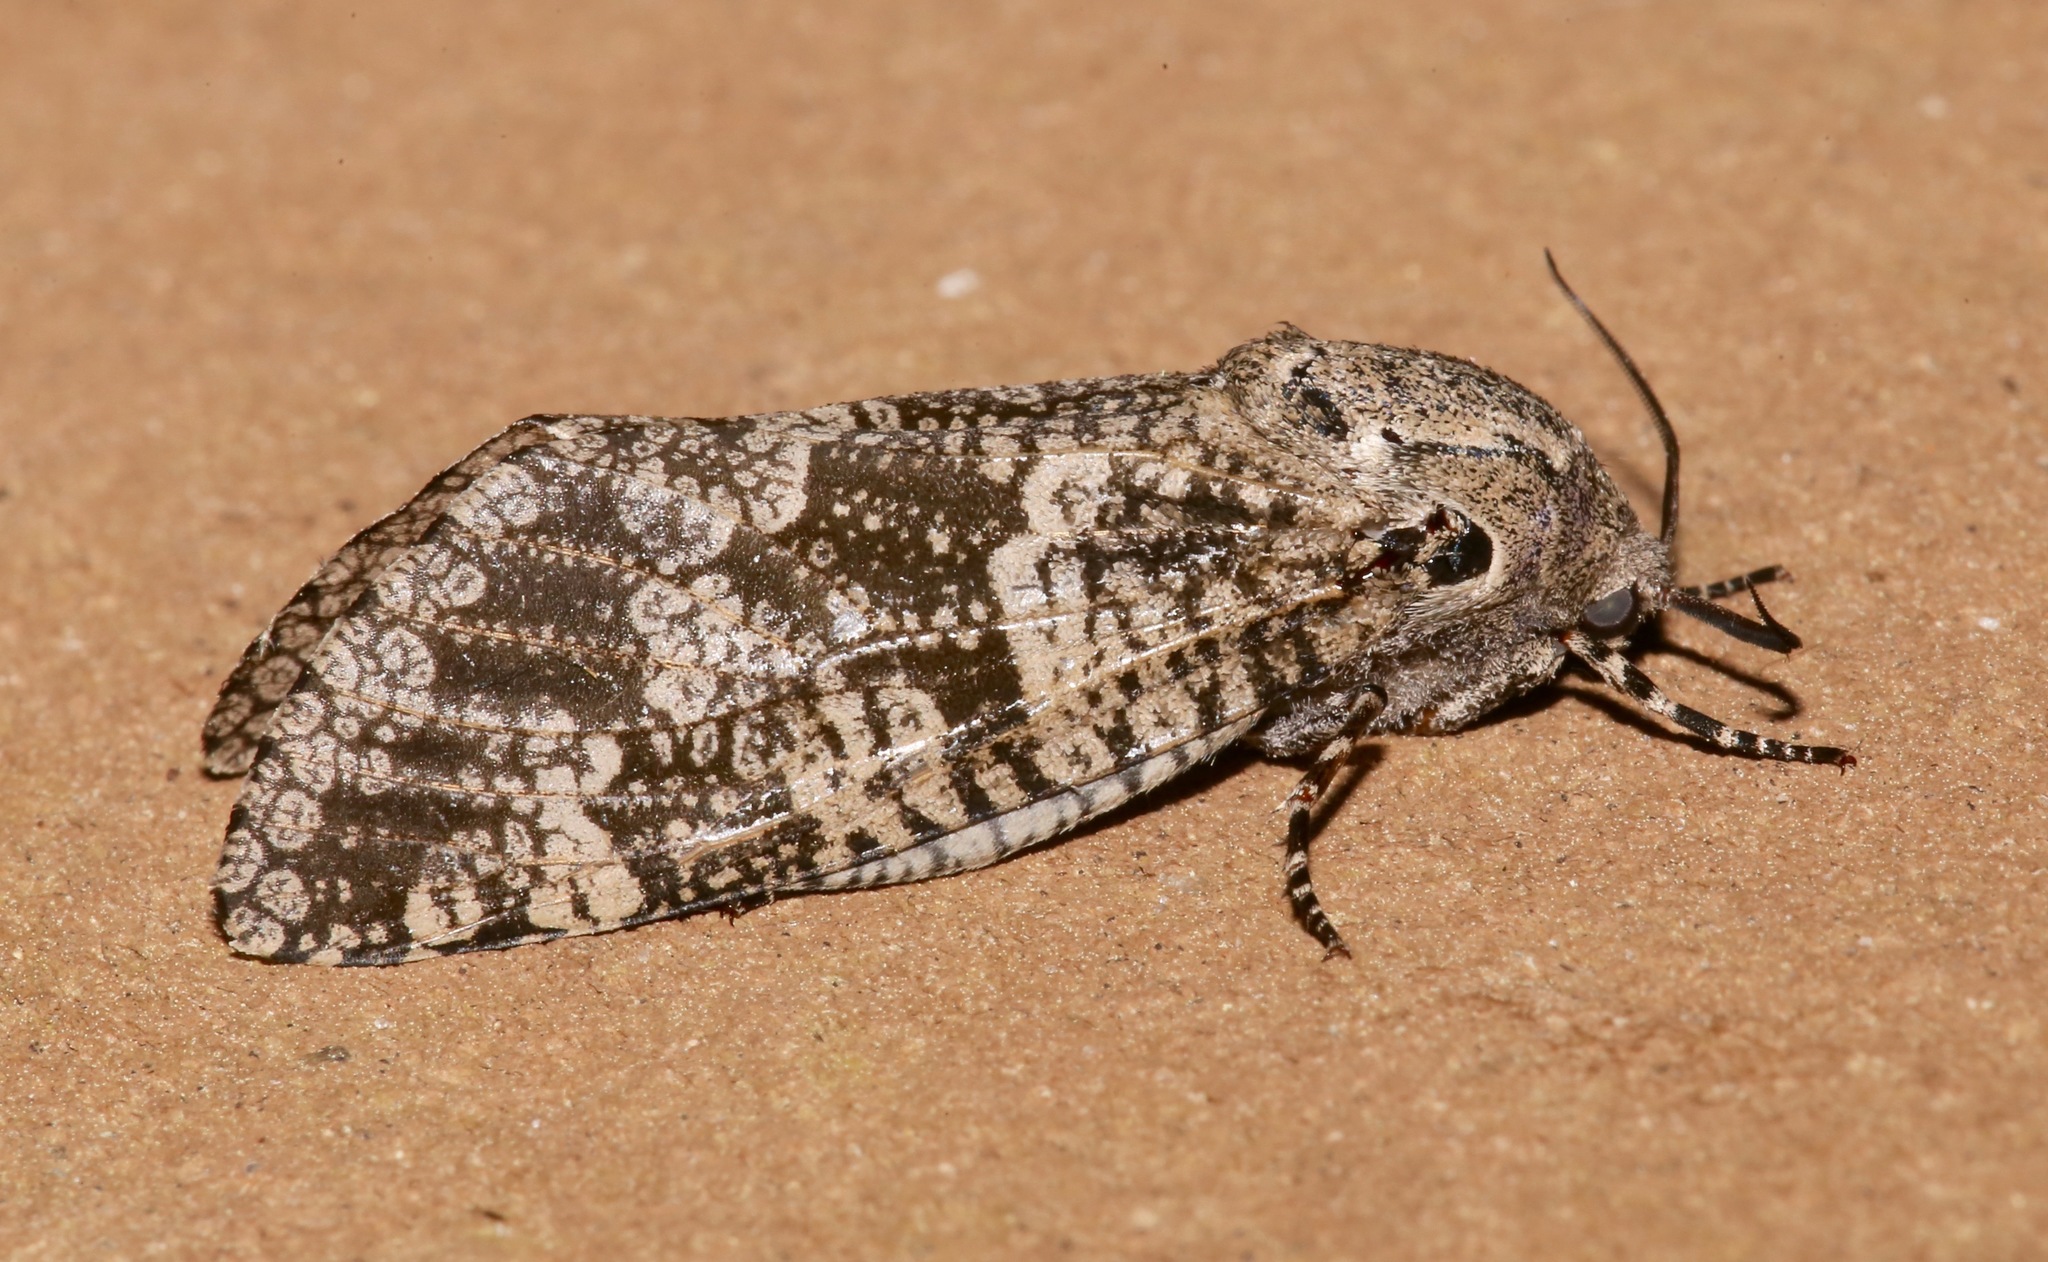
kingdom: Animalia
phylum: Arthropoda
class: Insecta
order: Lepidoptera
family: Cossidae
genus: Prionoxystus
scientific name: Prionoxystus robiniae
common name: Carpenterworm
